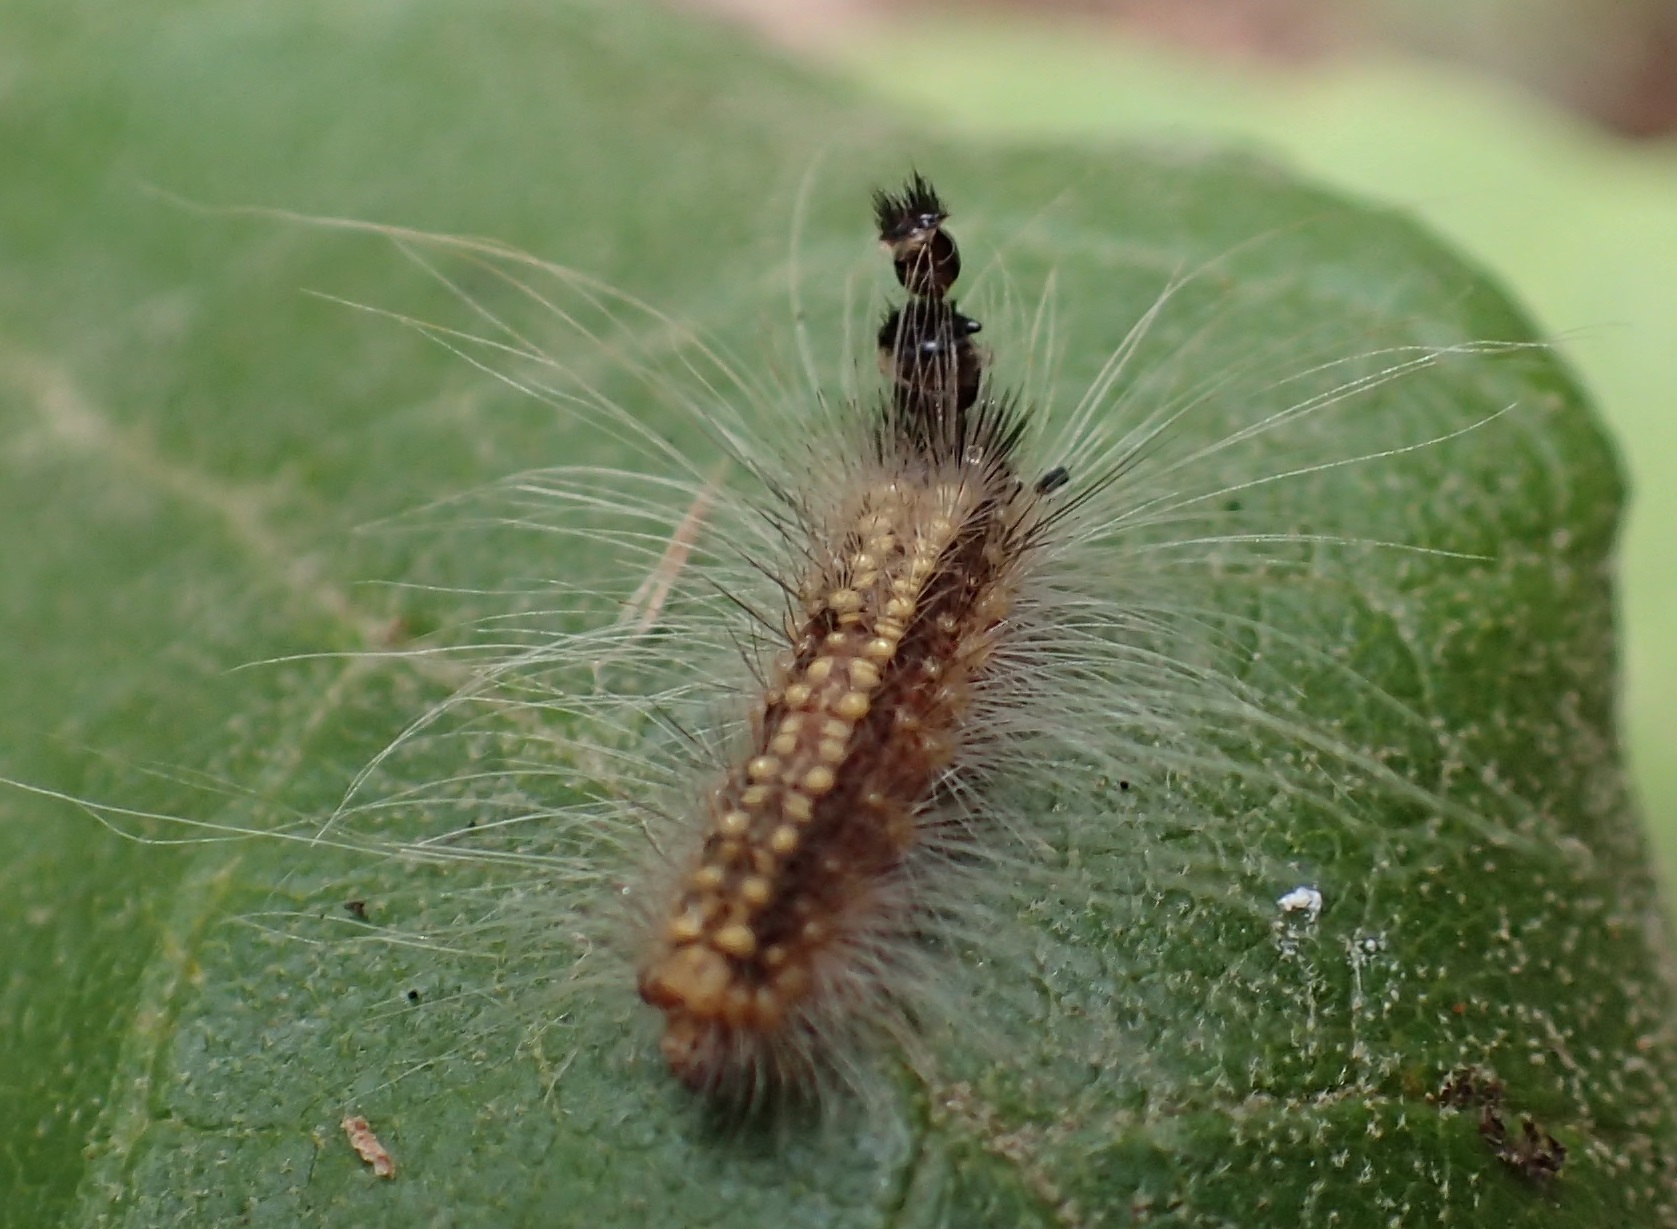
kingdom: Animalia
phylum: Arthropoda
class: Insecta
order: Lepidoptera
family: Nolidae
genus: Uraba
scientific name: Uraba lugens
